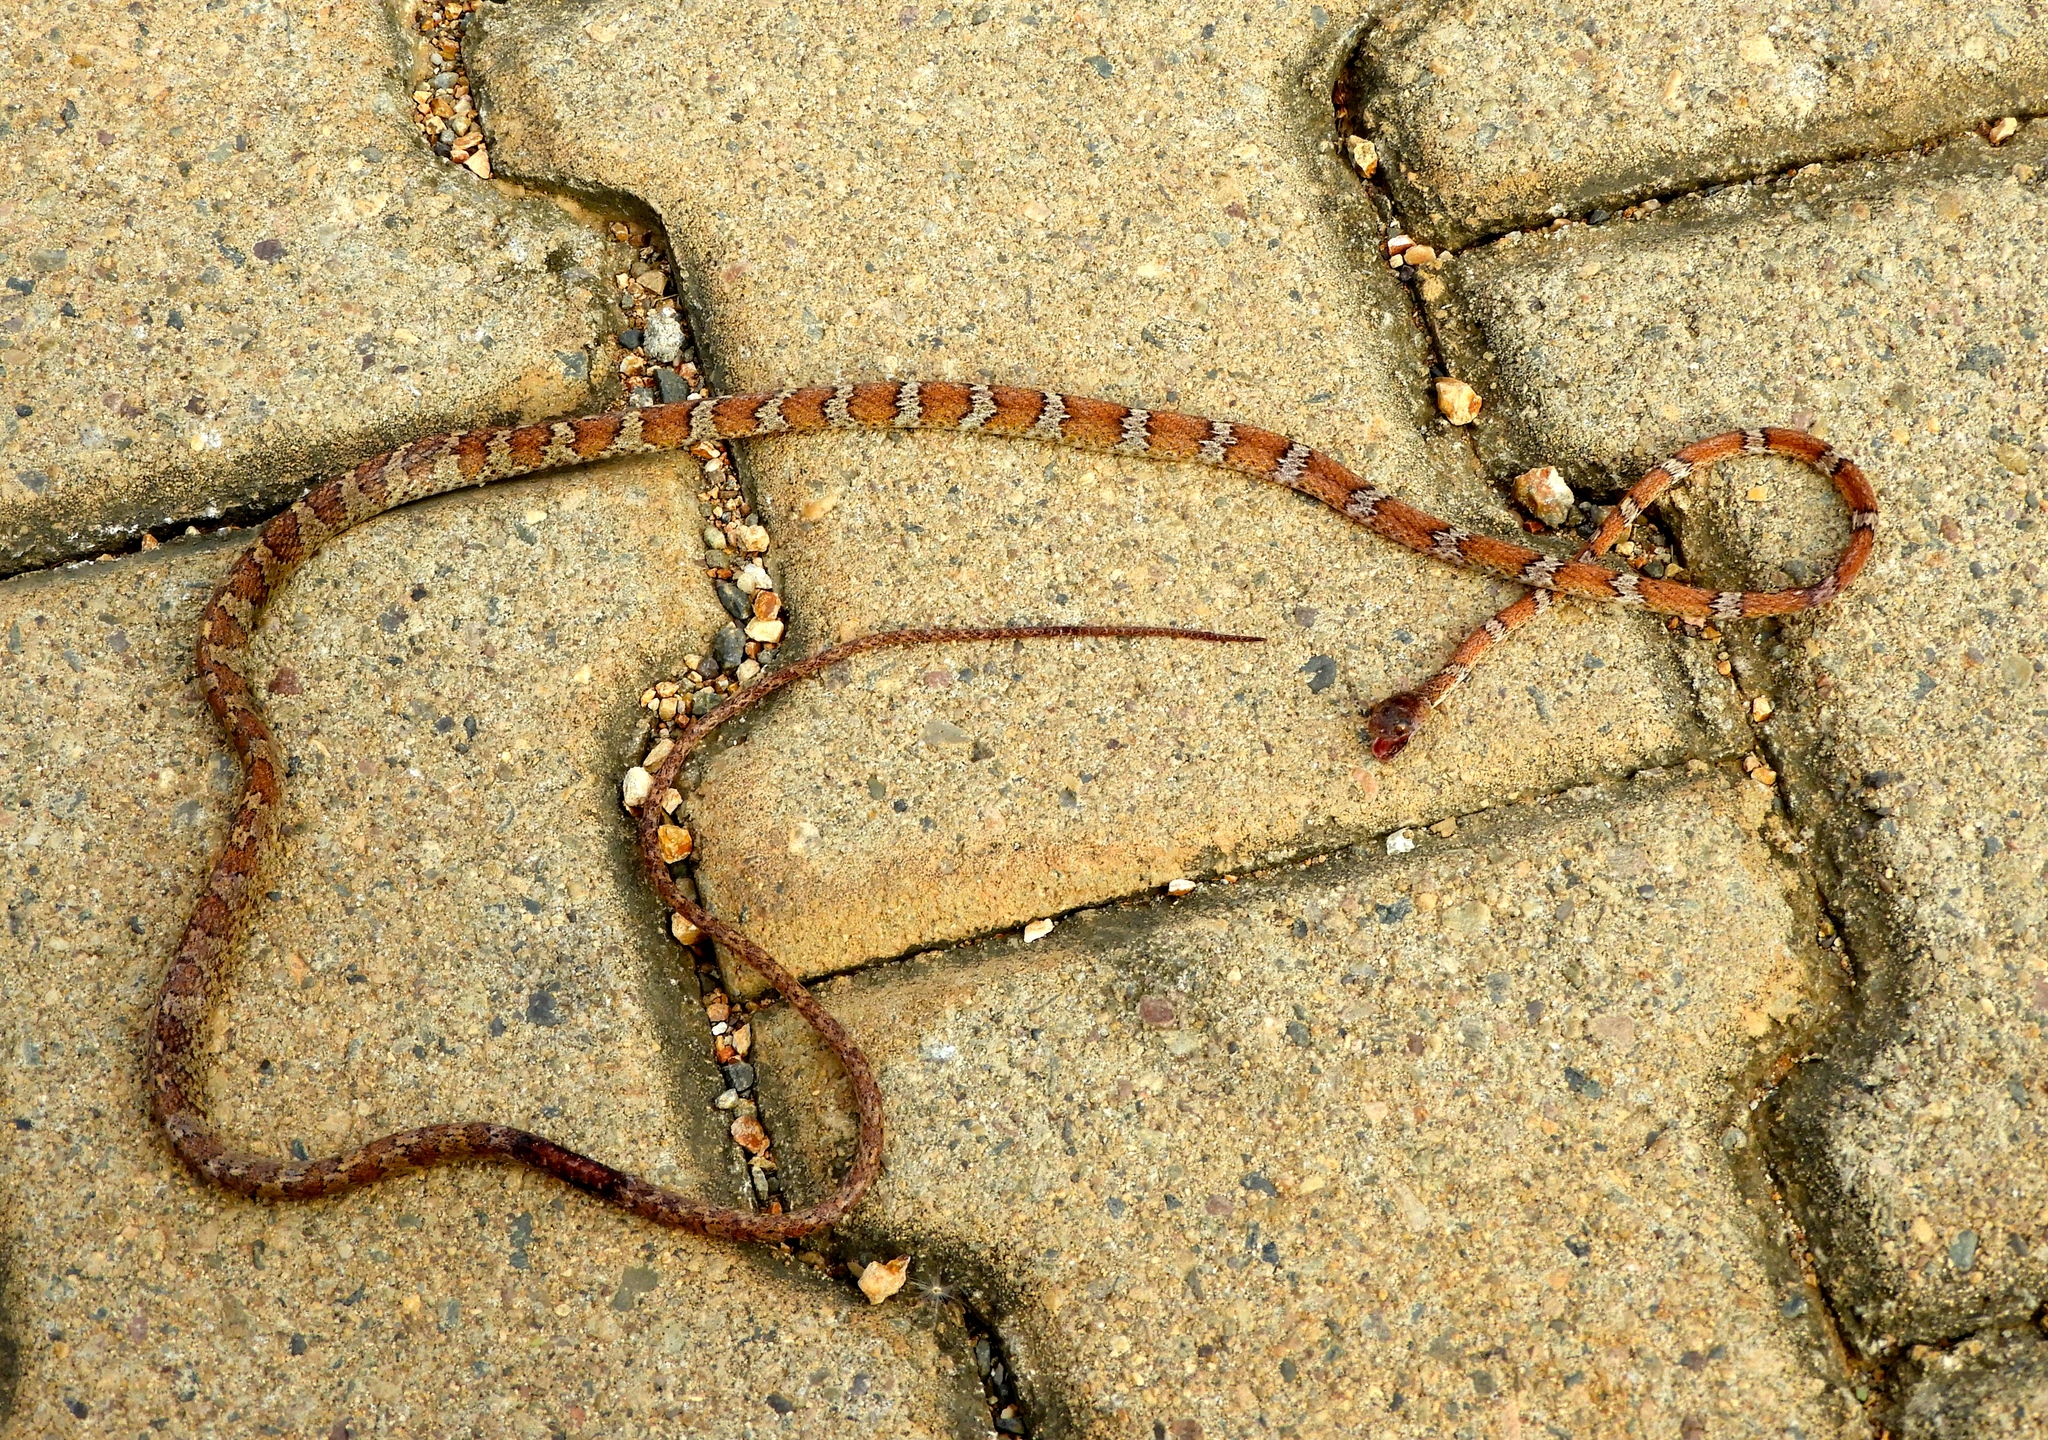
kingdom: Animalia
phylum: Chordata
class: Squamata
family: Colubridae
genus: Imantodes
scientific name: Imantodes gemmistratus
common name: Central american tree snake
